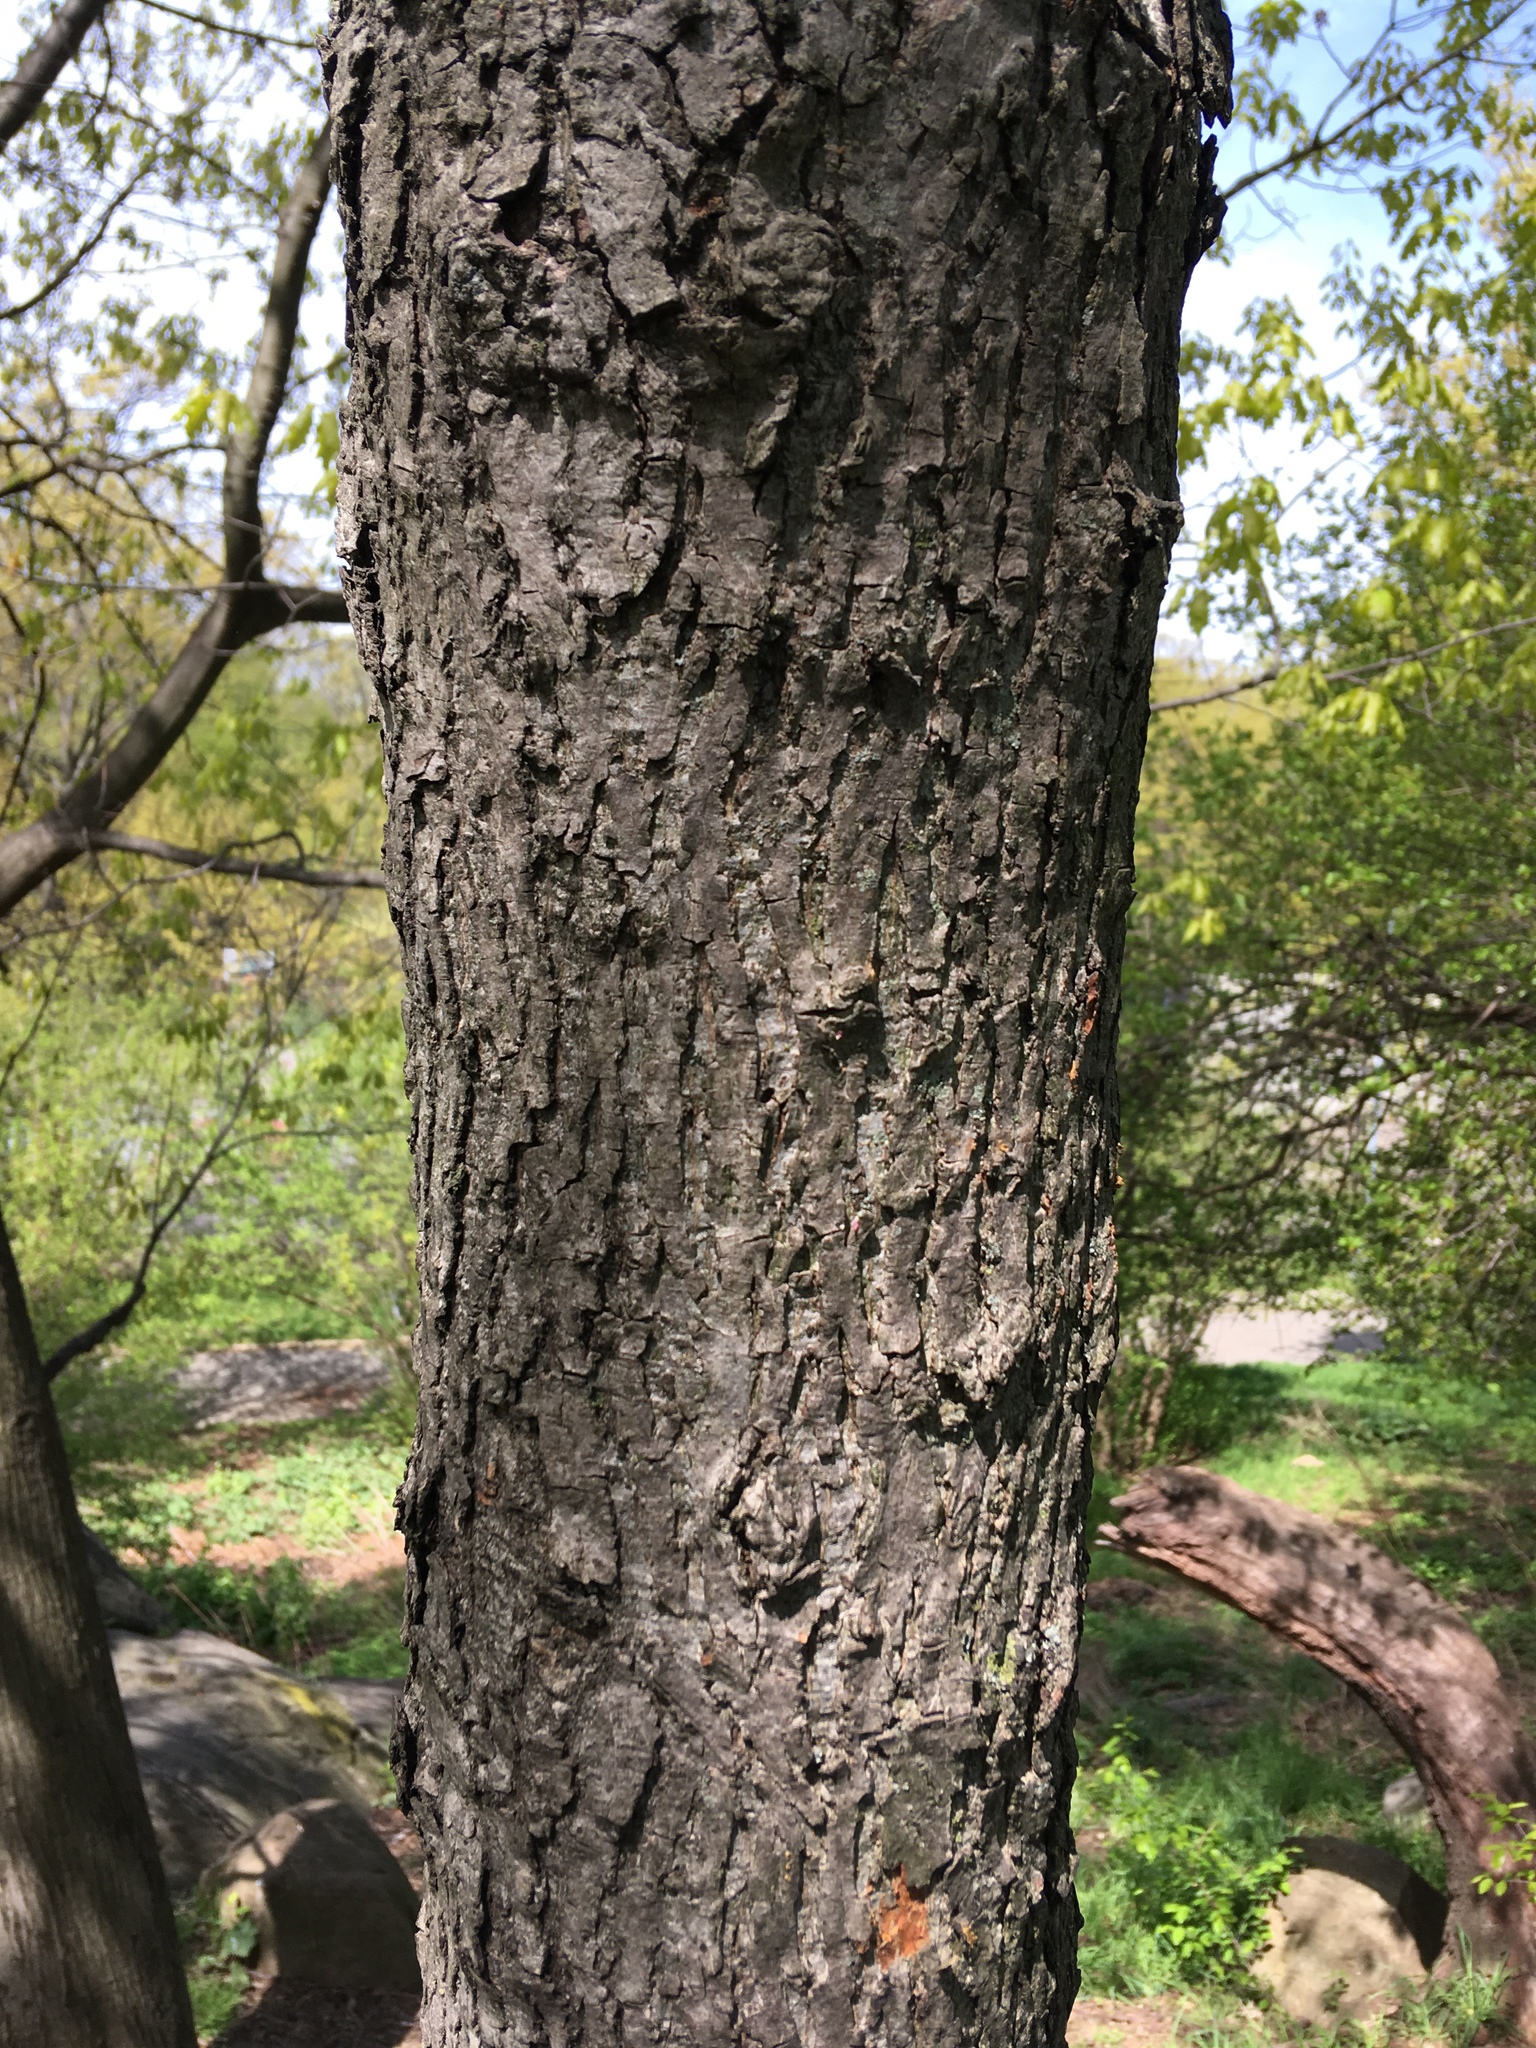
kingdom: Plantae
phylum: Tracheophyta
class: Magnoliopsida
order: Fagales
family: Juglandaceae
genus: Carya
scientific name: Carya alba
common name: Mockernut hickory
